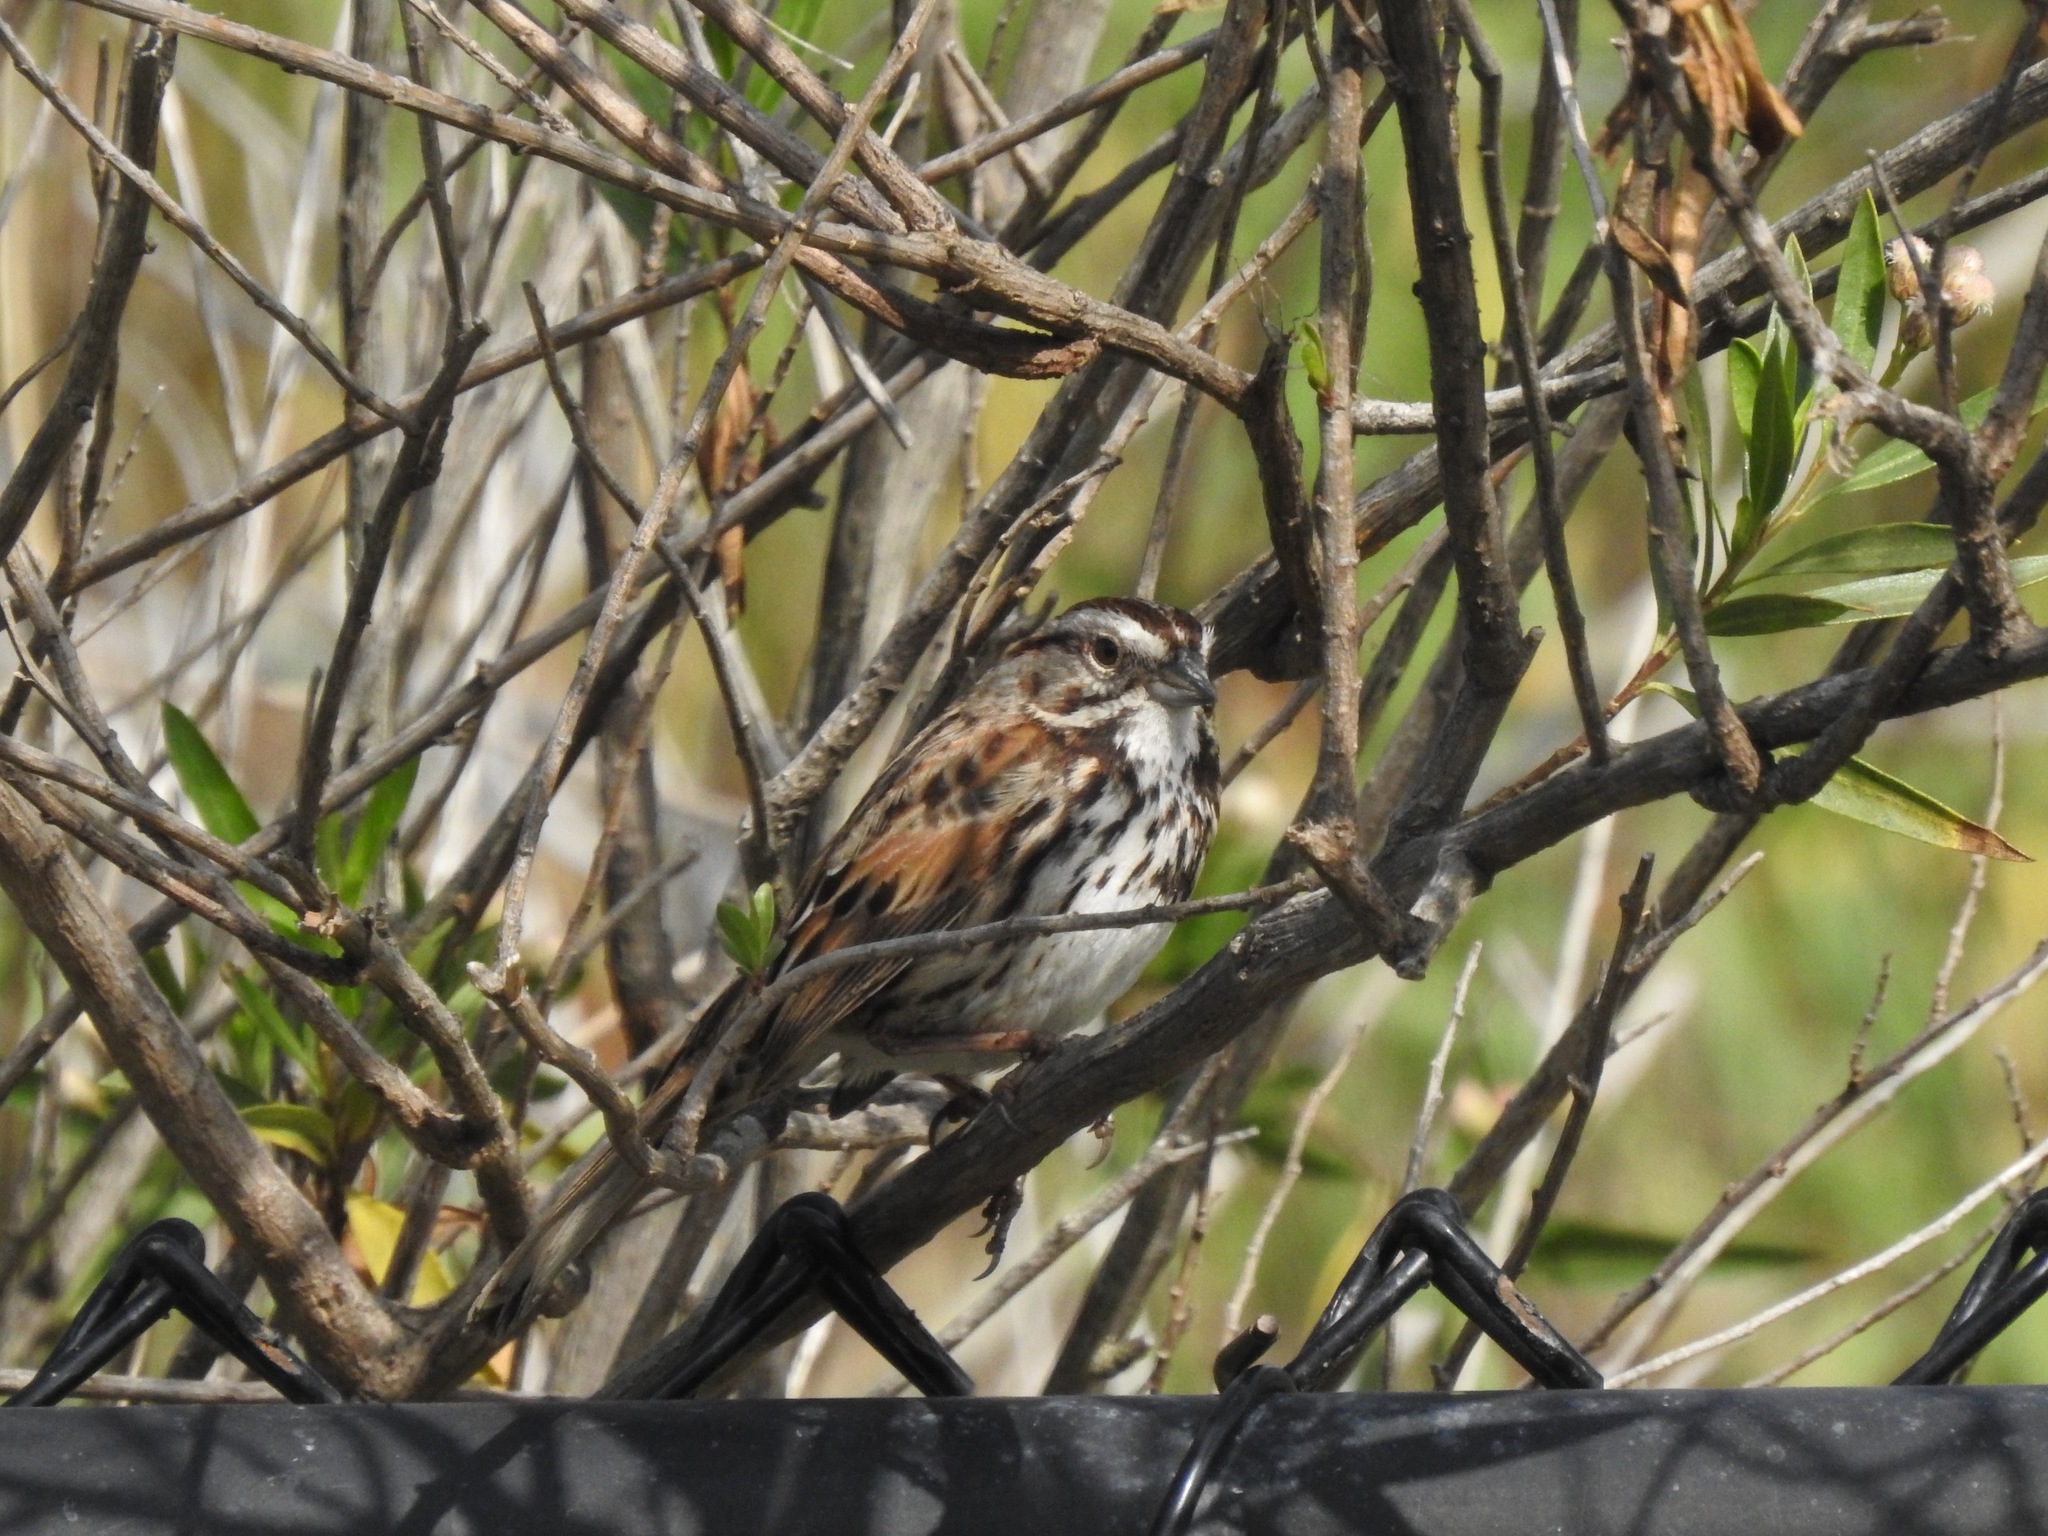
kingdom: Animalia
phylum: Chordata
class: Aves
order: Passeriformes
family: Passerellidae
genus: Melospiza
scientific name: Melospiza melodia
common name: Song sparrow
